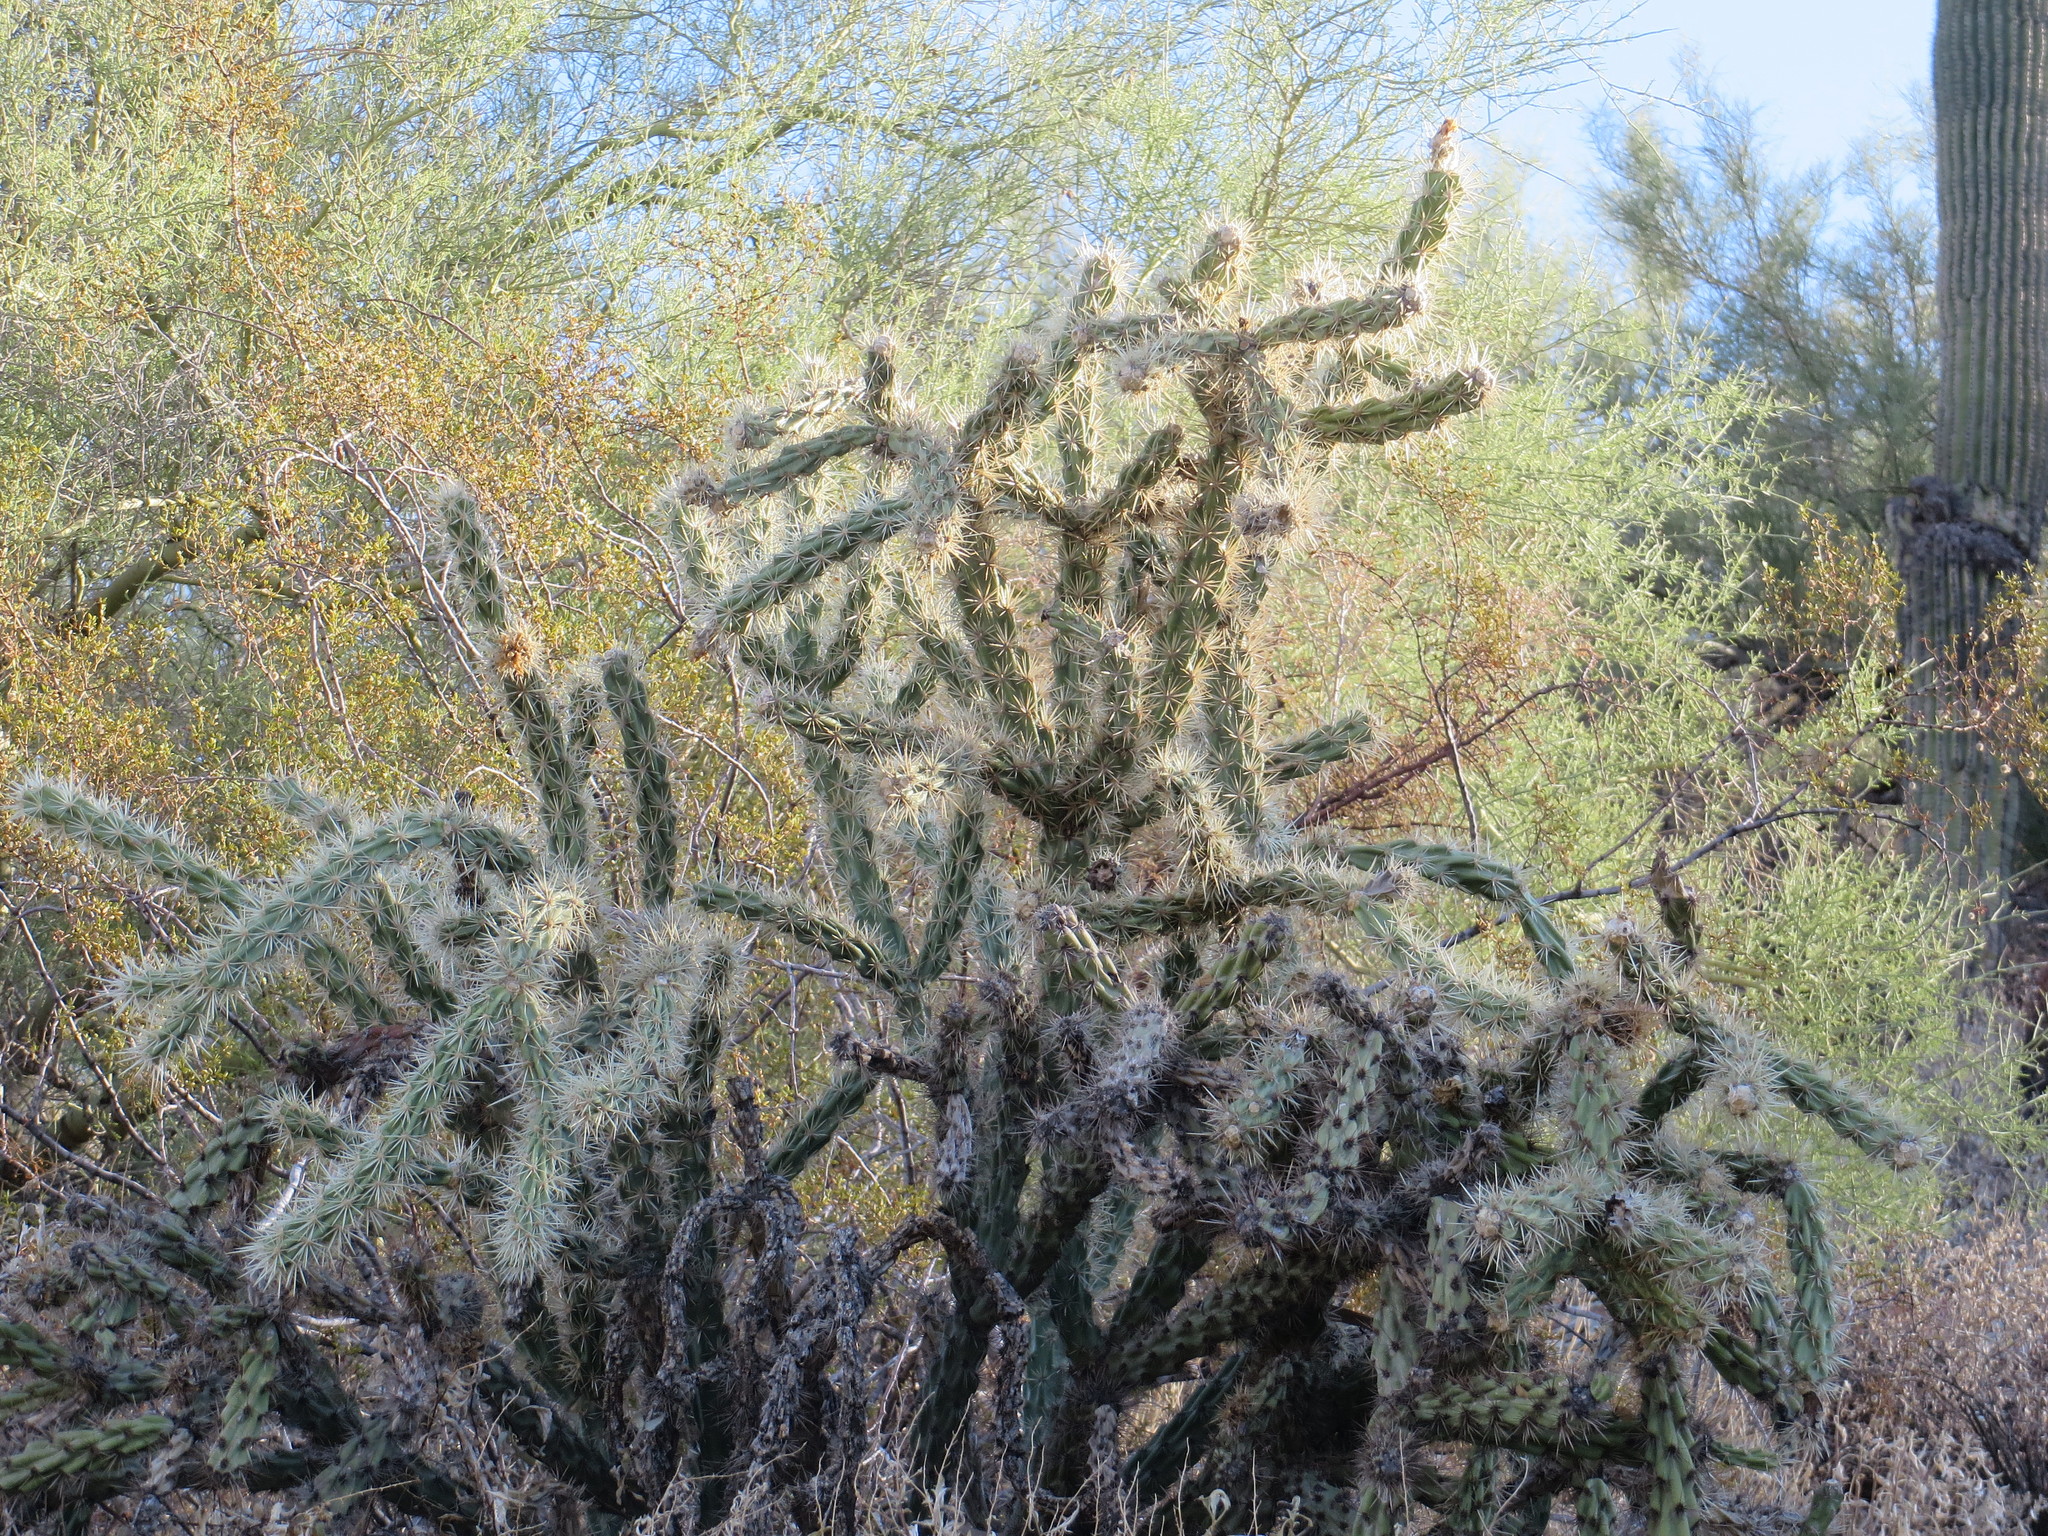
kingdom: Plantae
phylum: Tracheophyta
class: Magnoliopsida
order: Caryophyllales
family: Cactaceae
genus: Cylindropuntia
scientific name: Cylindropuntia acanthocarpa
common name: Buckhorn cholla
